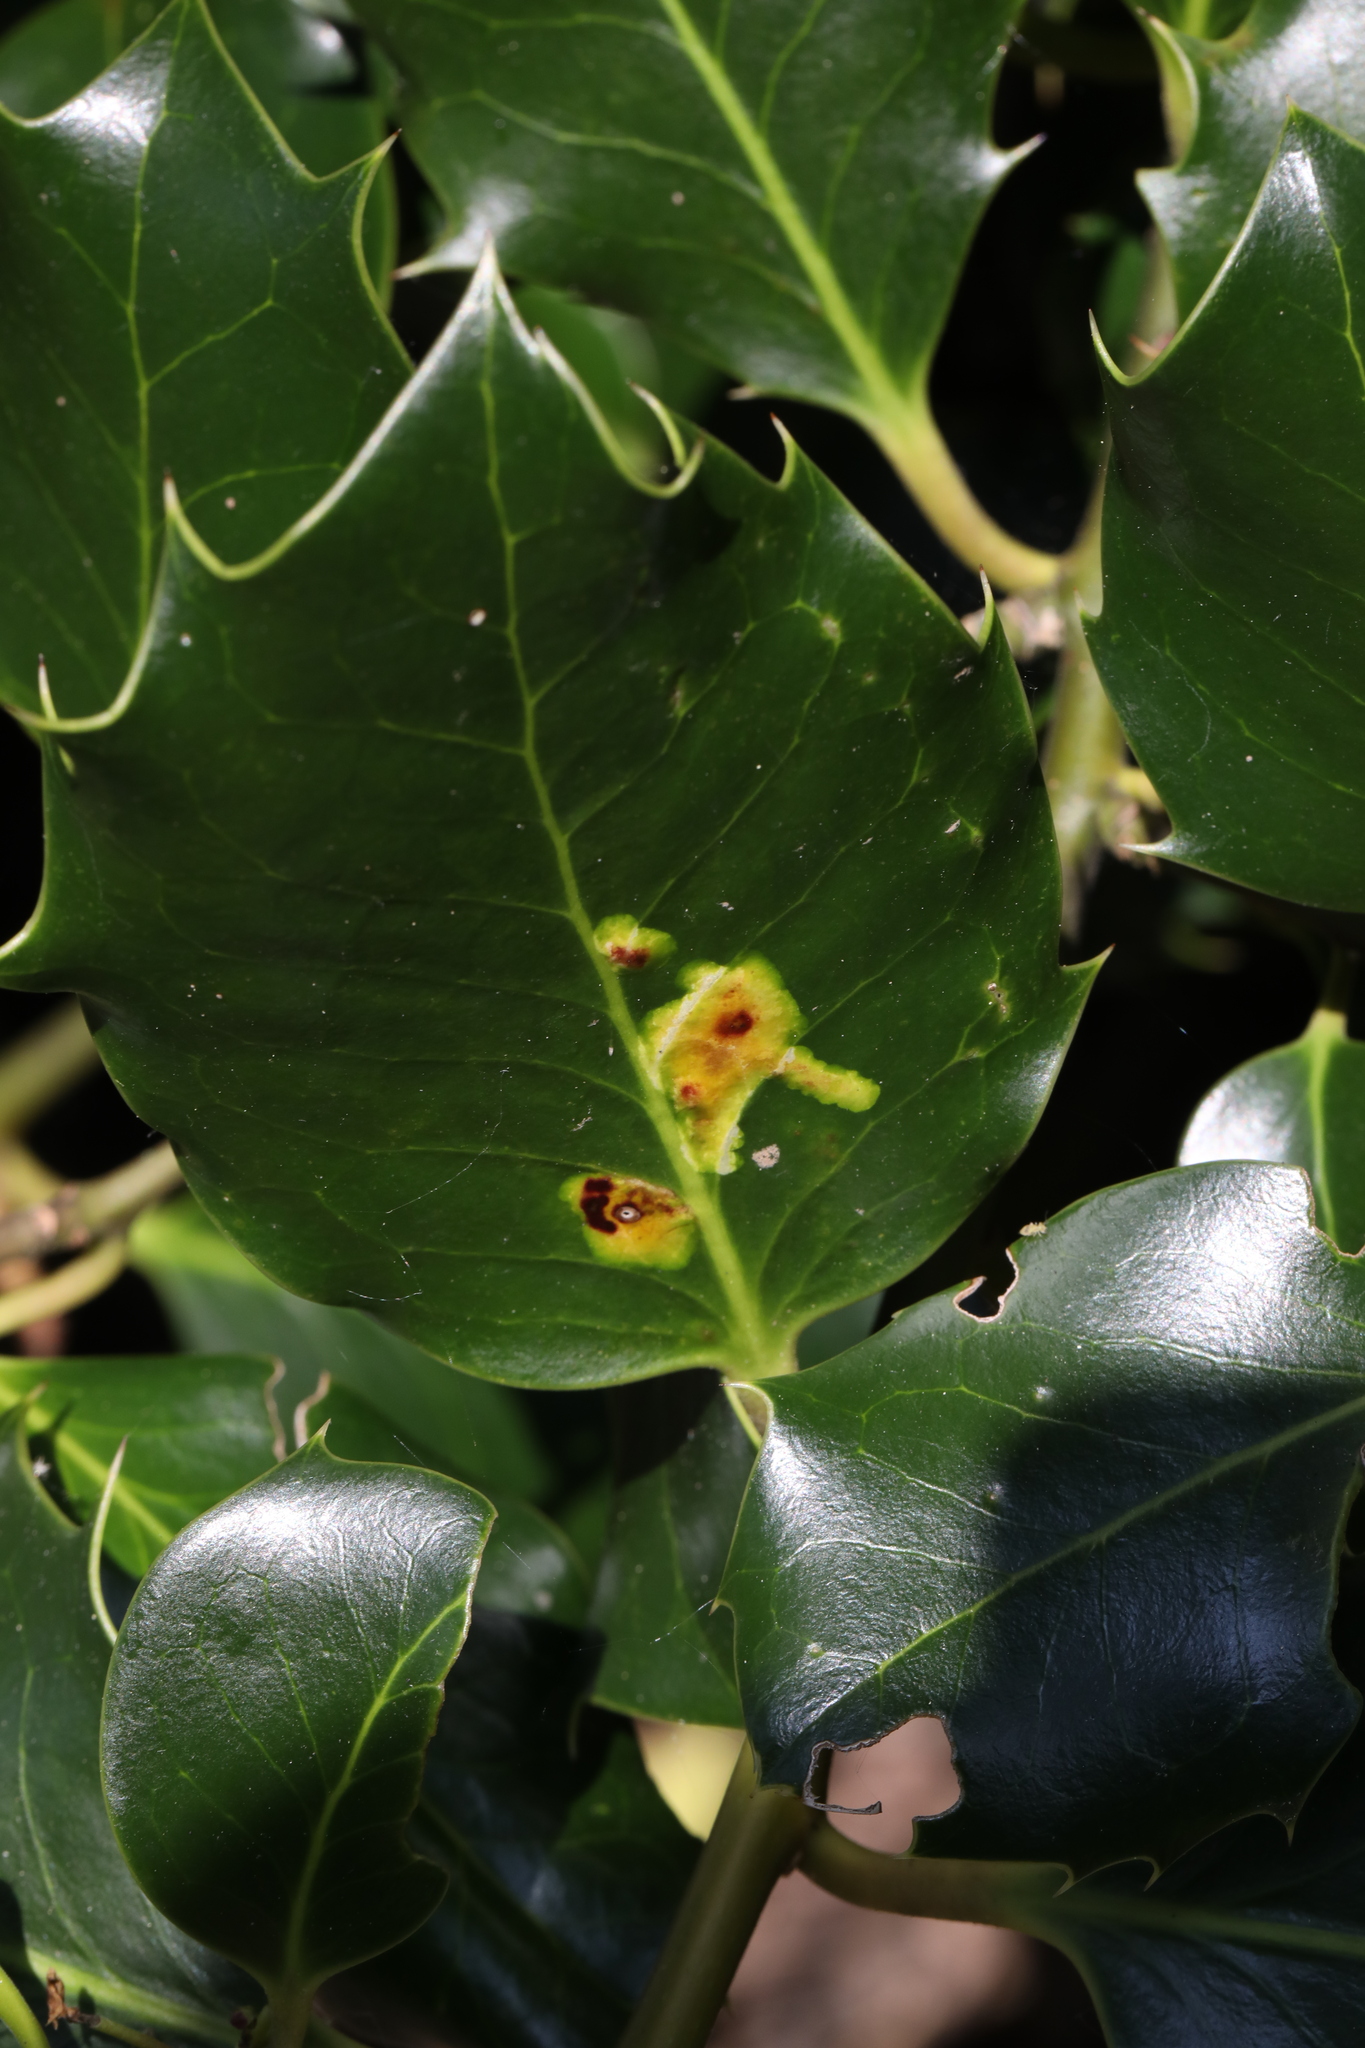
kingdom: Animalia
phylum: Arthropoda
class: Insecta
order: Diptera
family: Agromyzidae
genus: Phytomyza
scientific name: Phytomyza ilicis
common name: Holly leafminer
